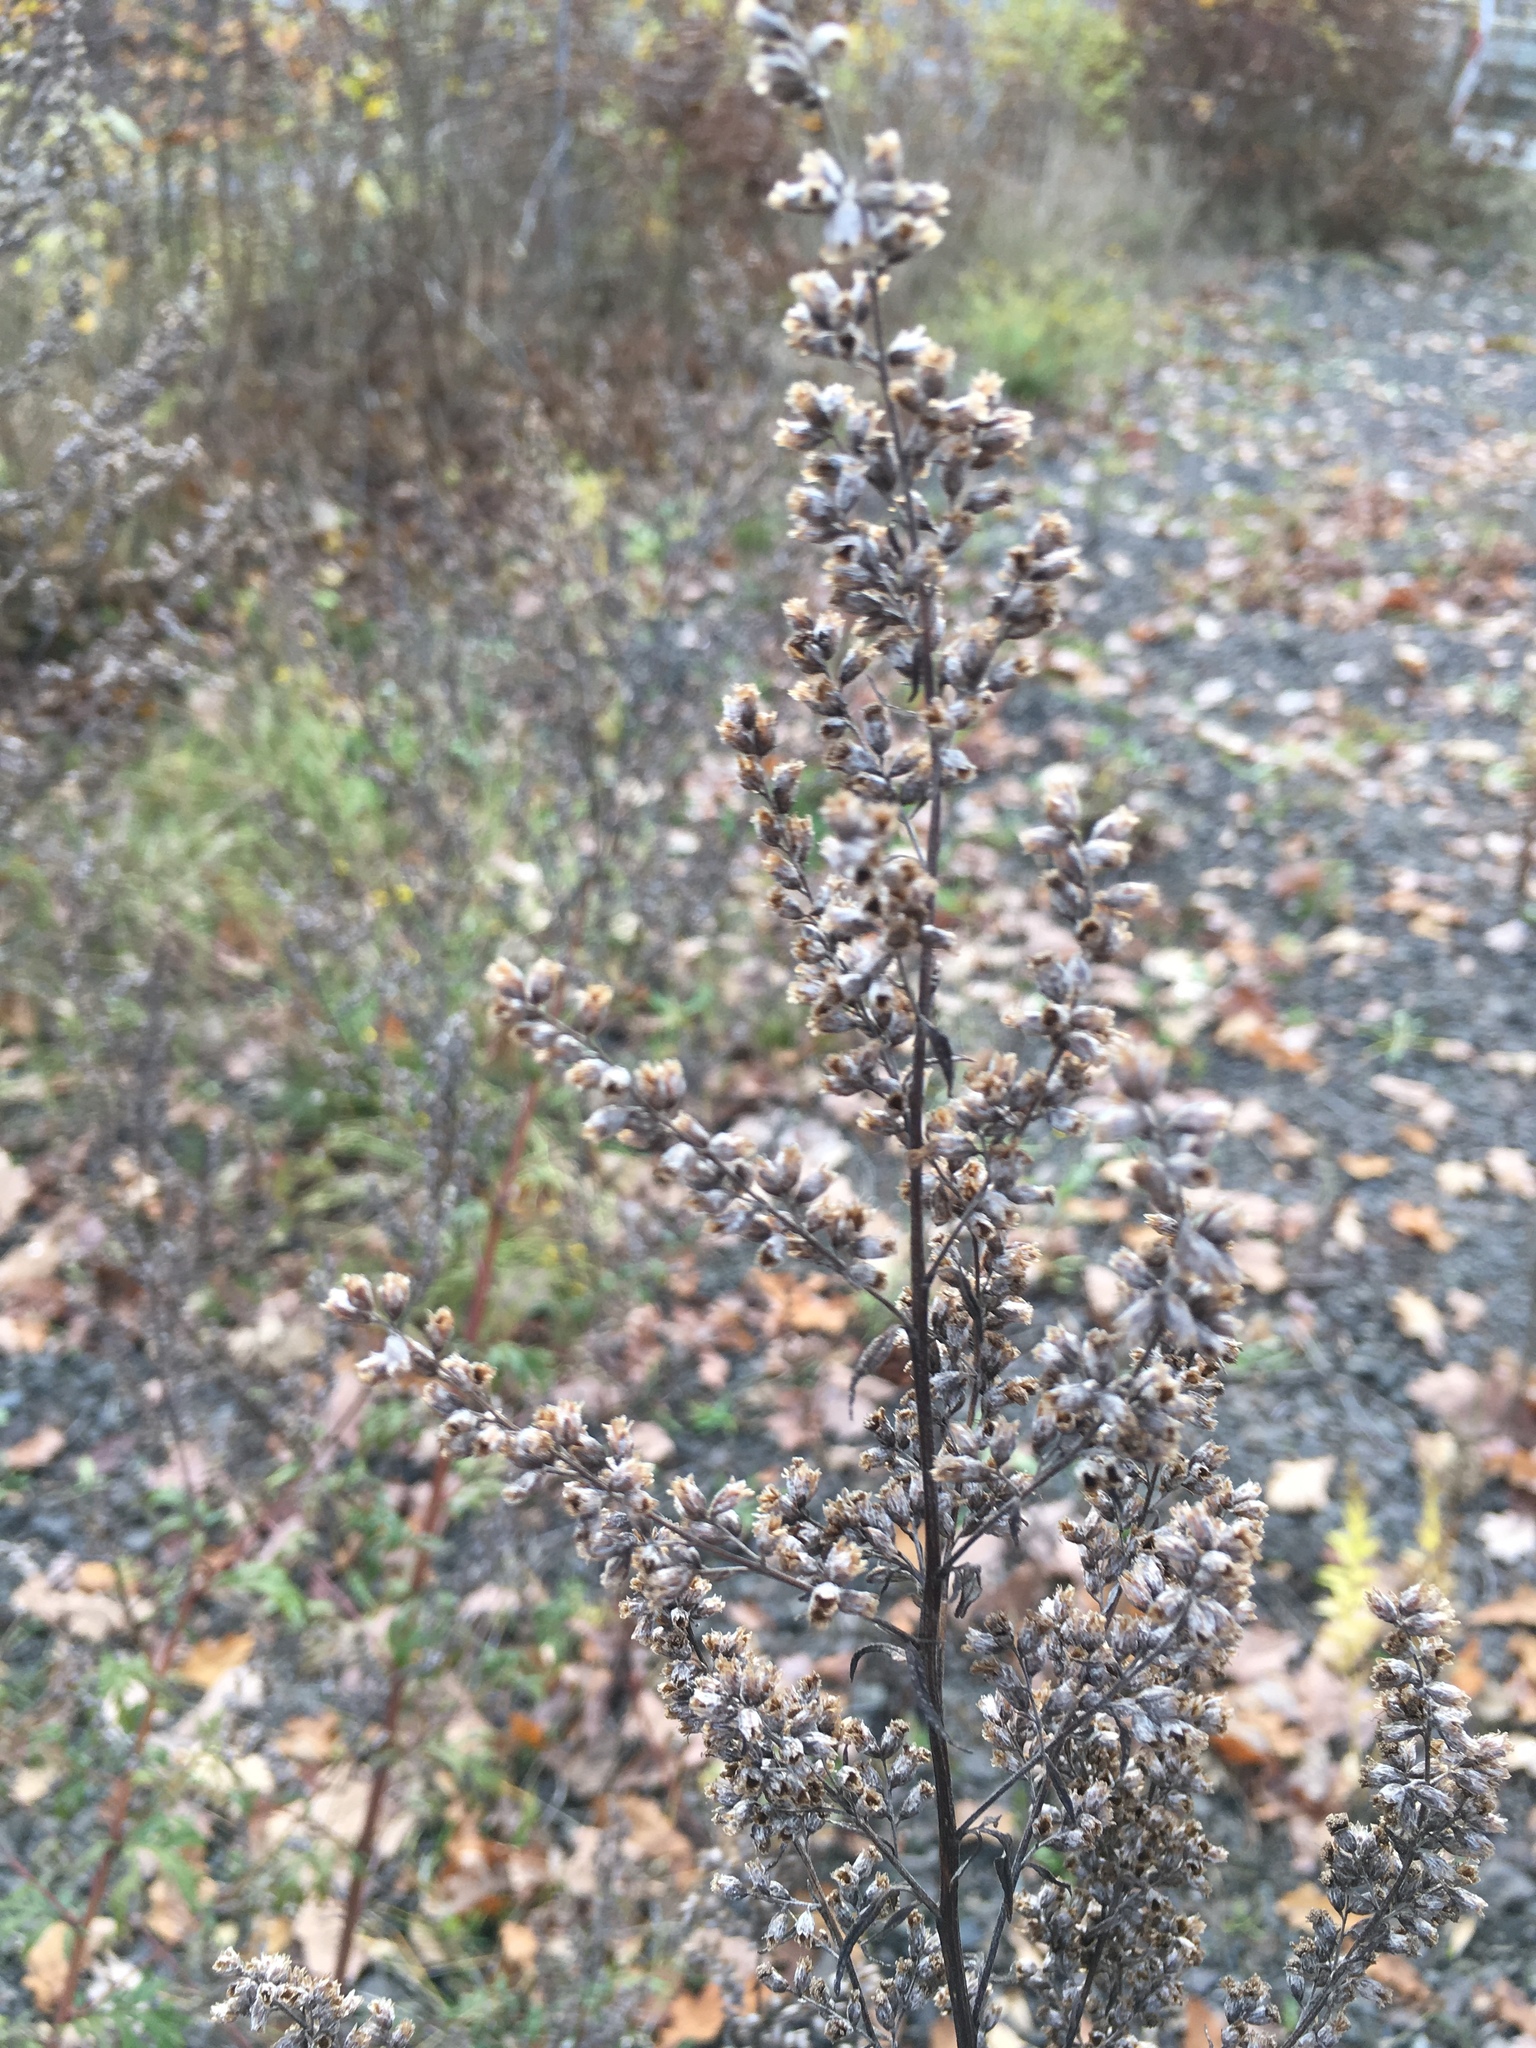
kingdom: Plantae
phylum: Tracheophyta
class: Magnoliopsida
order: Asterales
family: Asteraceae
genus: Artemisia
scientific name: Artemisia vulgaris
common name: Mugwort
